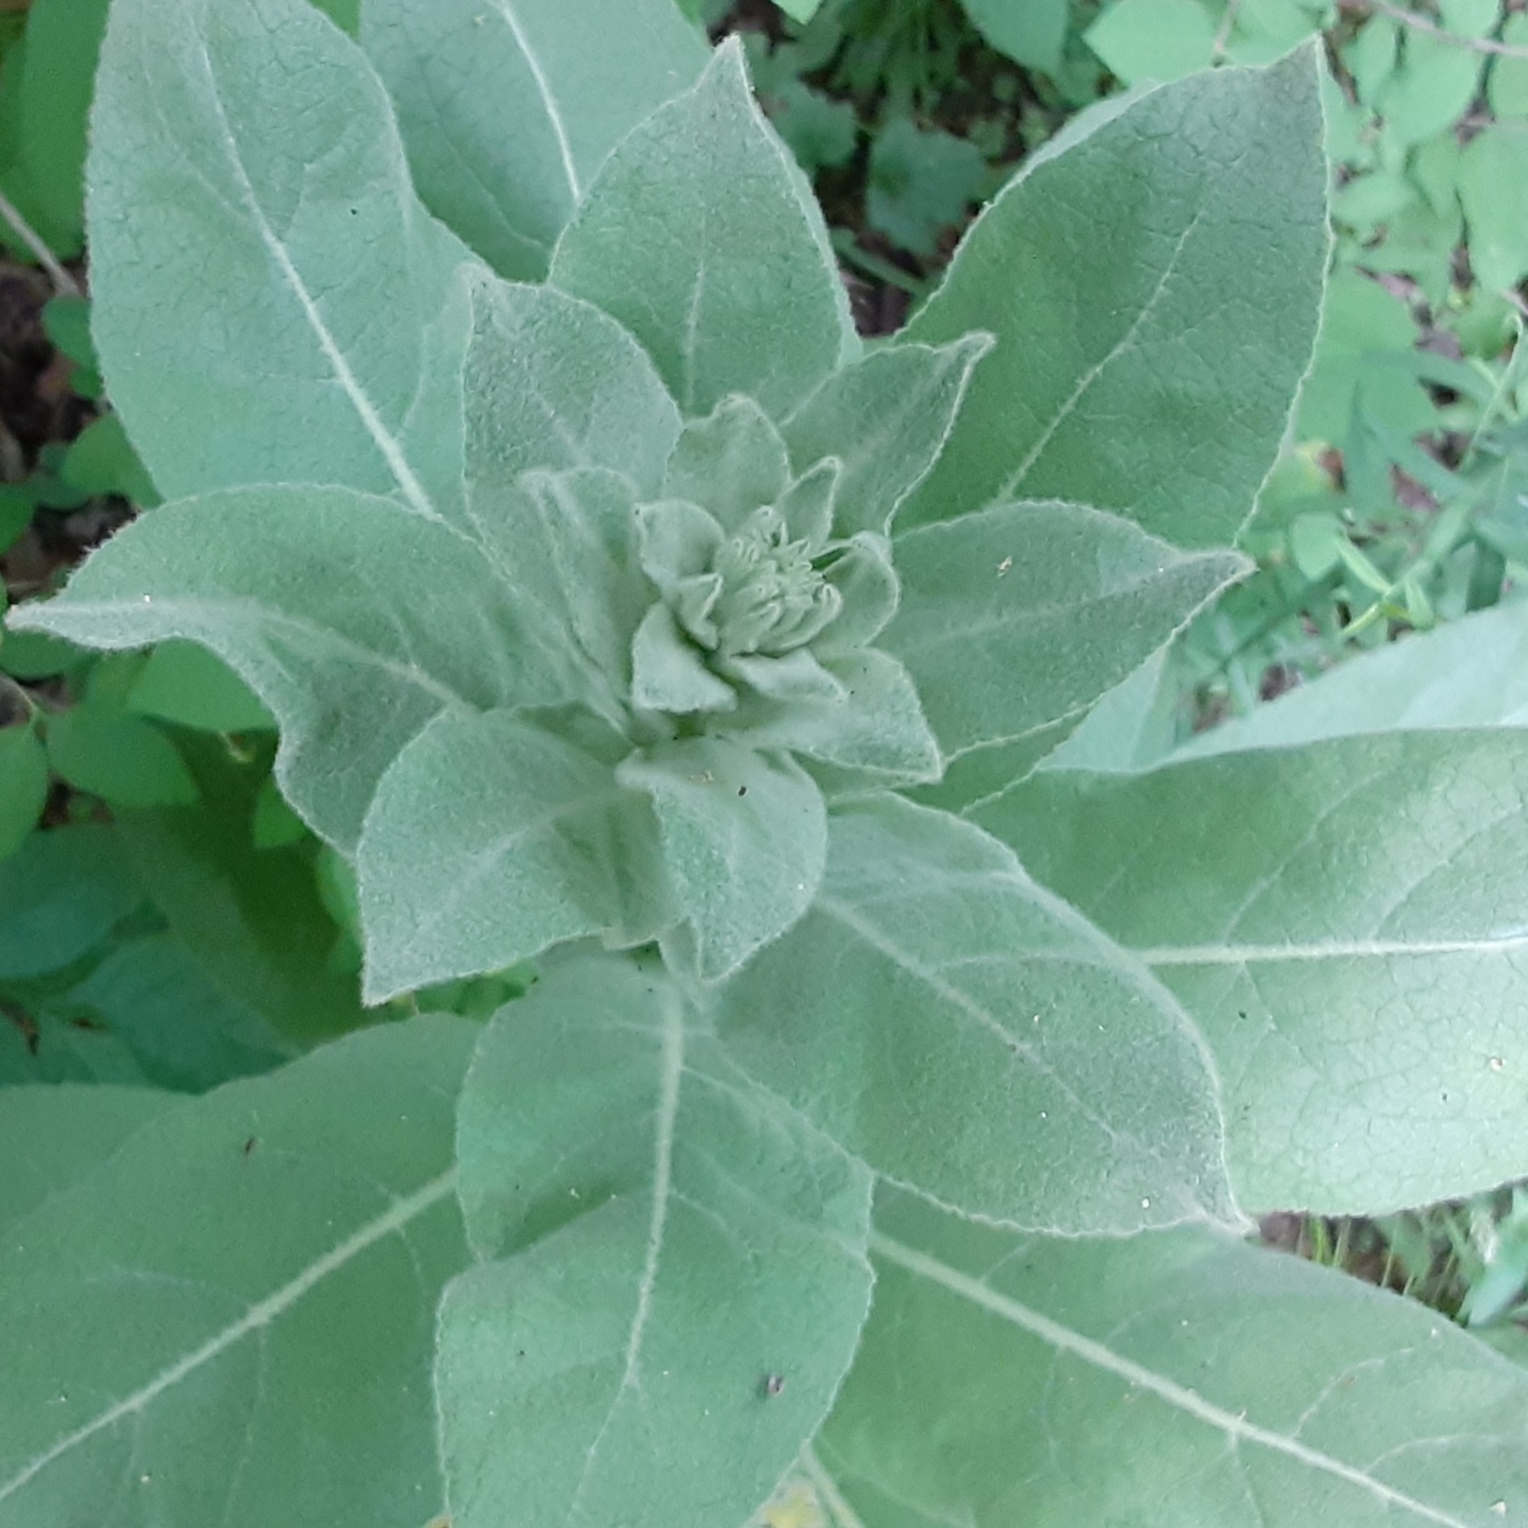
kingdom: Plantae
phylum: Tracheophyta
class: Magnoliopsida
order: Lamiales
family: Scrophulariaceae
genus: Verbascum
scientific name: Verbascum thapsus
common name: Common mullein
